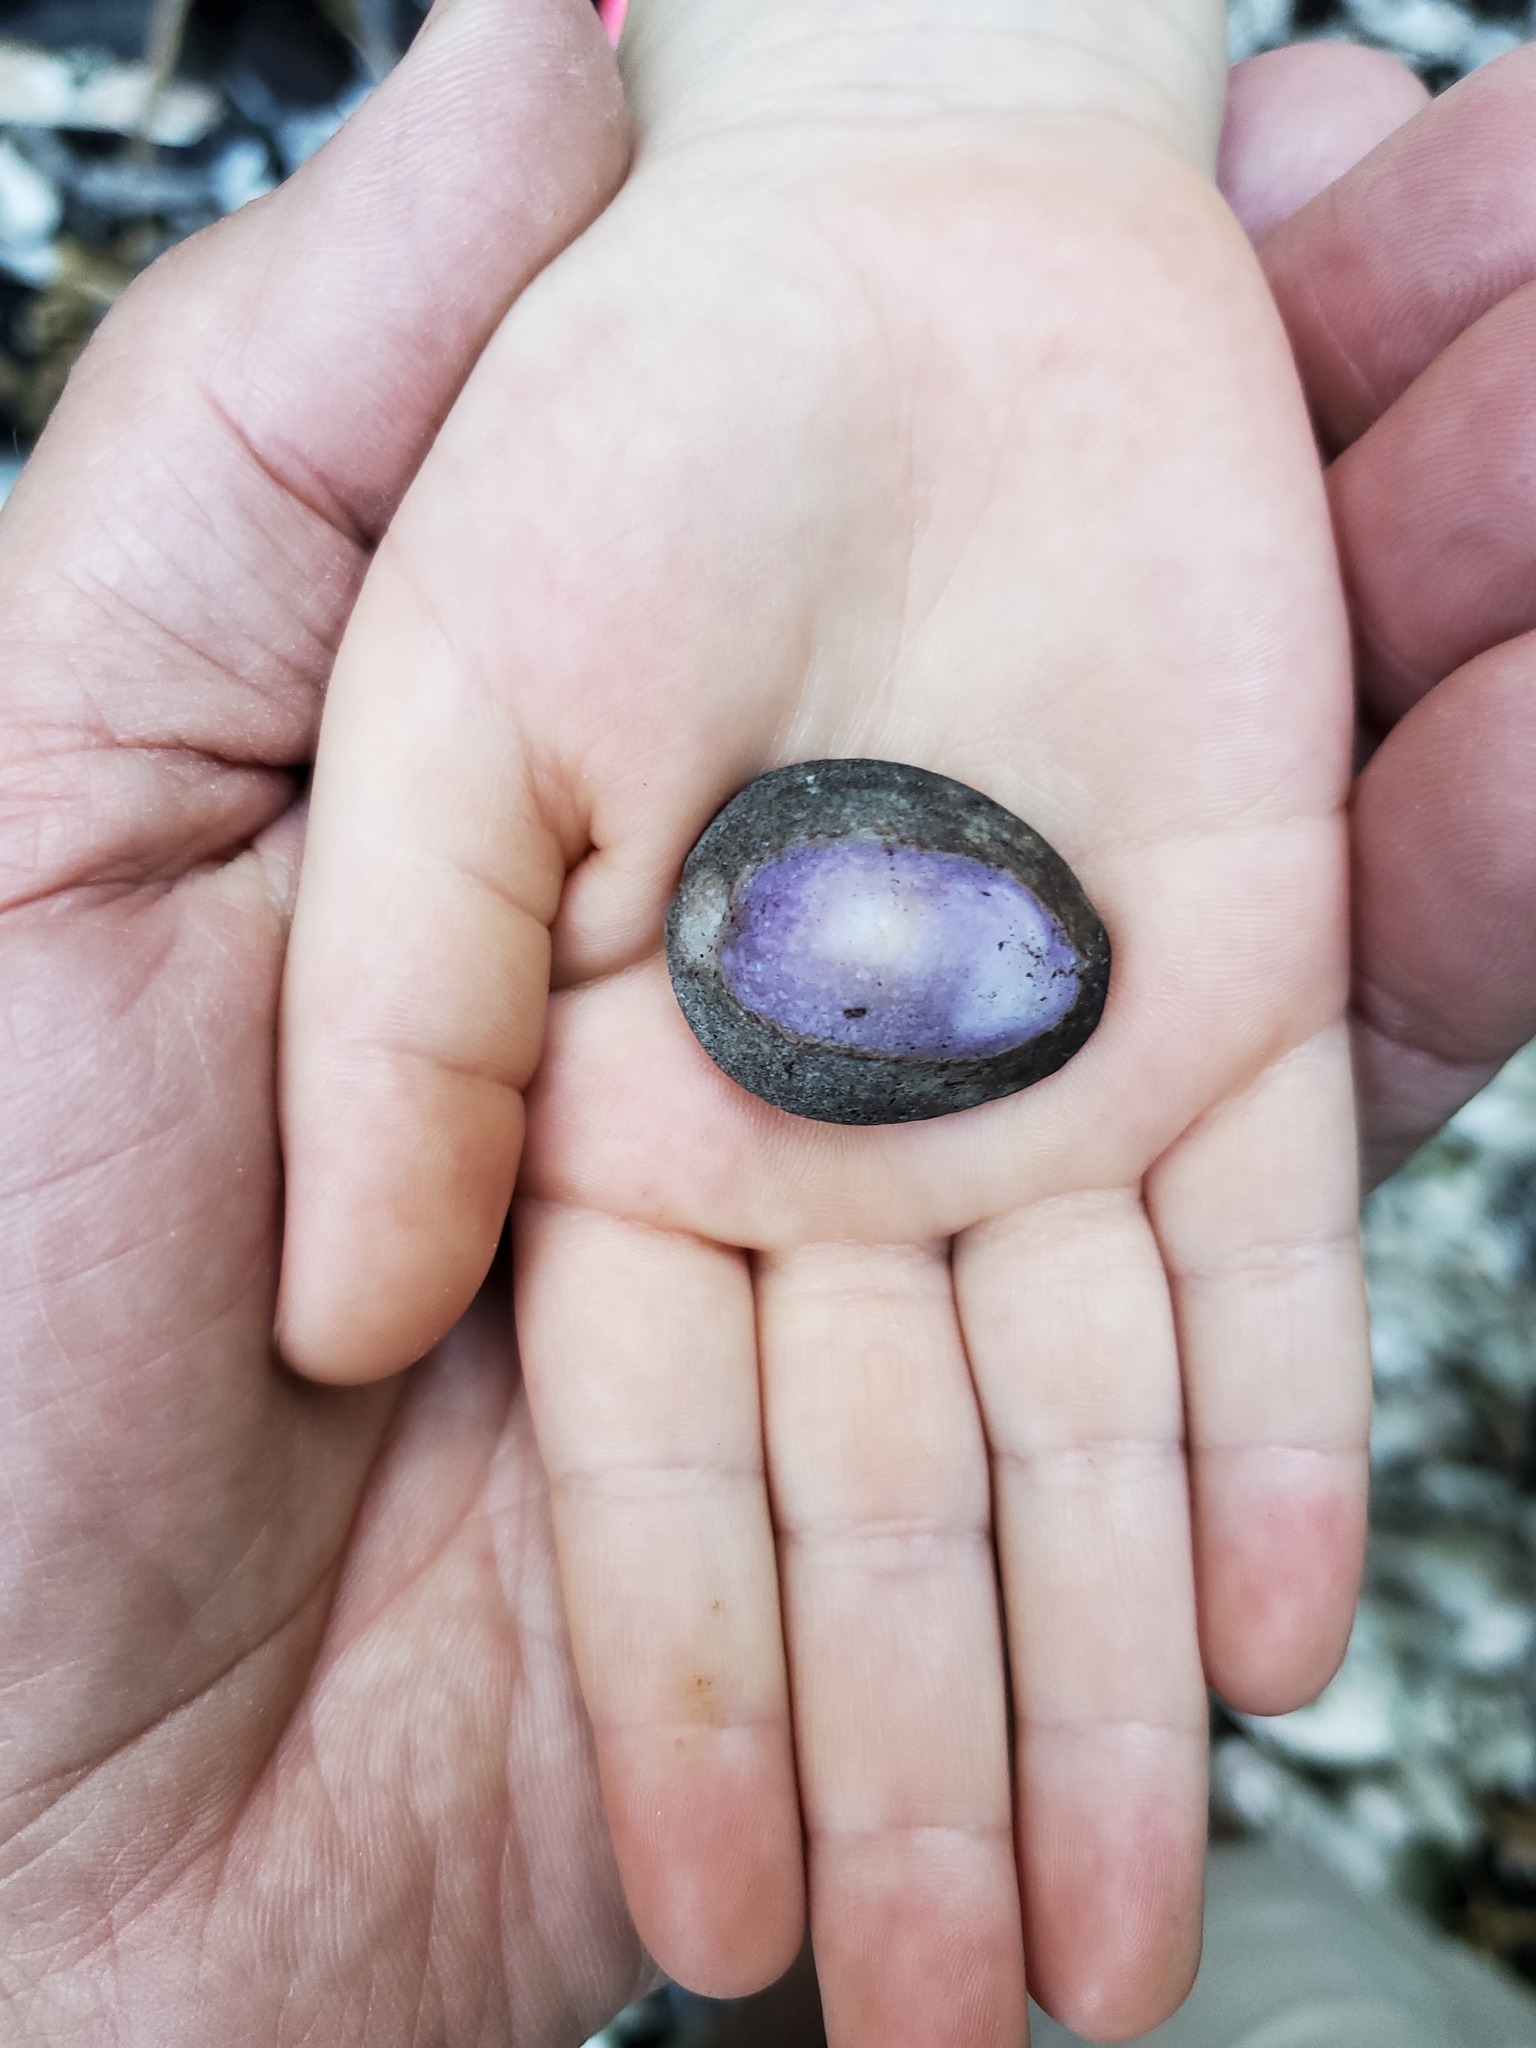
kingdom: Animalia
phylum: Mollusca
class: Gastropoda
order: Littorinimorpha
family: Cypraeidae
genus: Monetaria
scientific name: Monetaria caputophidii
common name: Snake's head cowry
